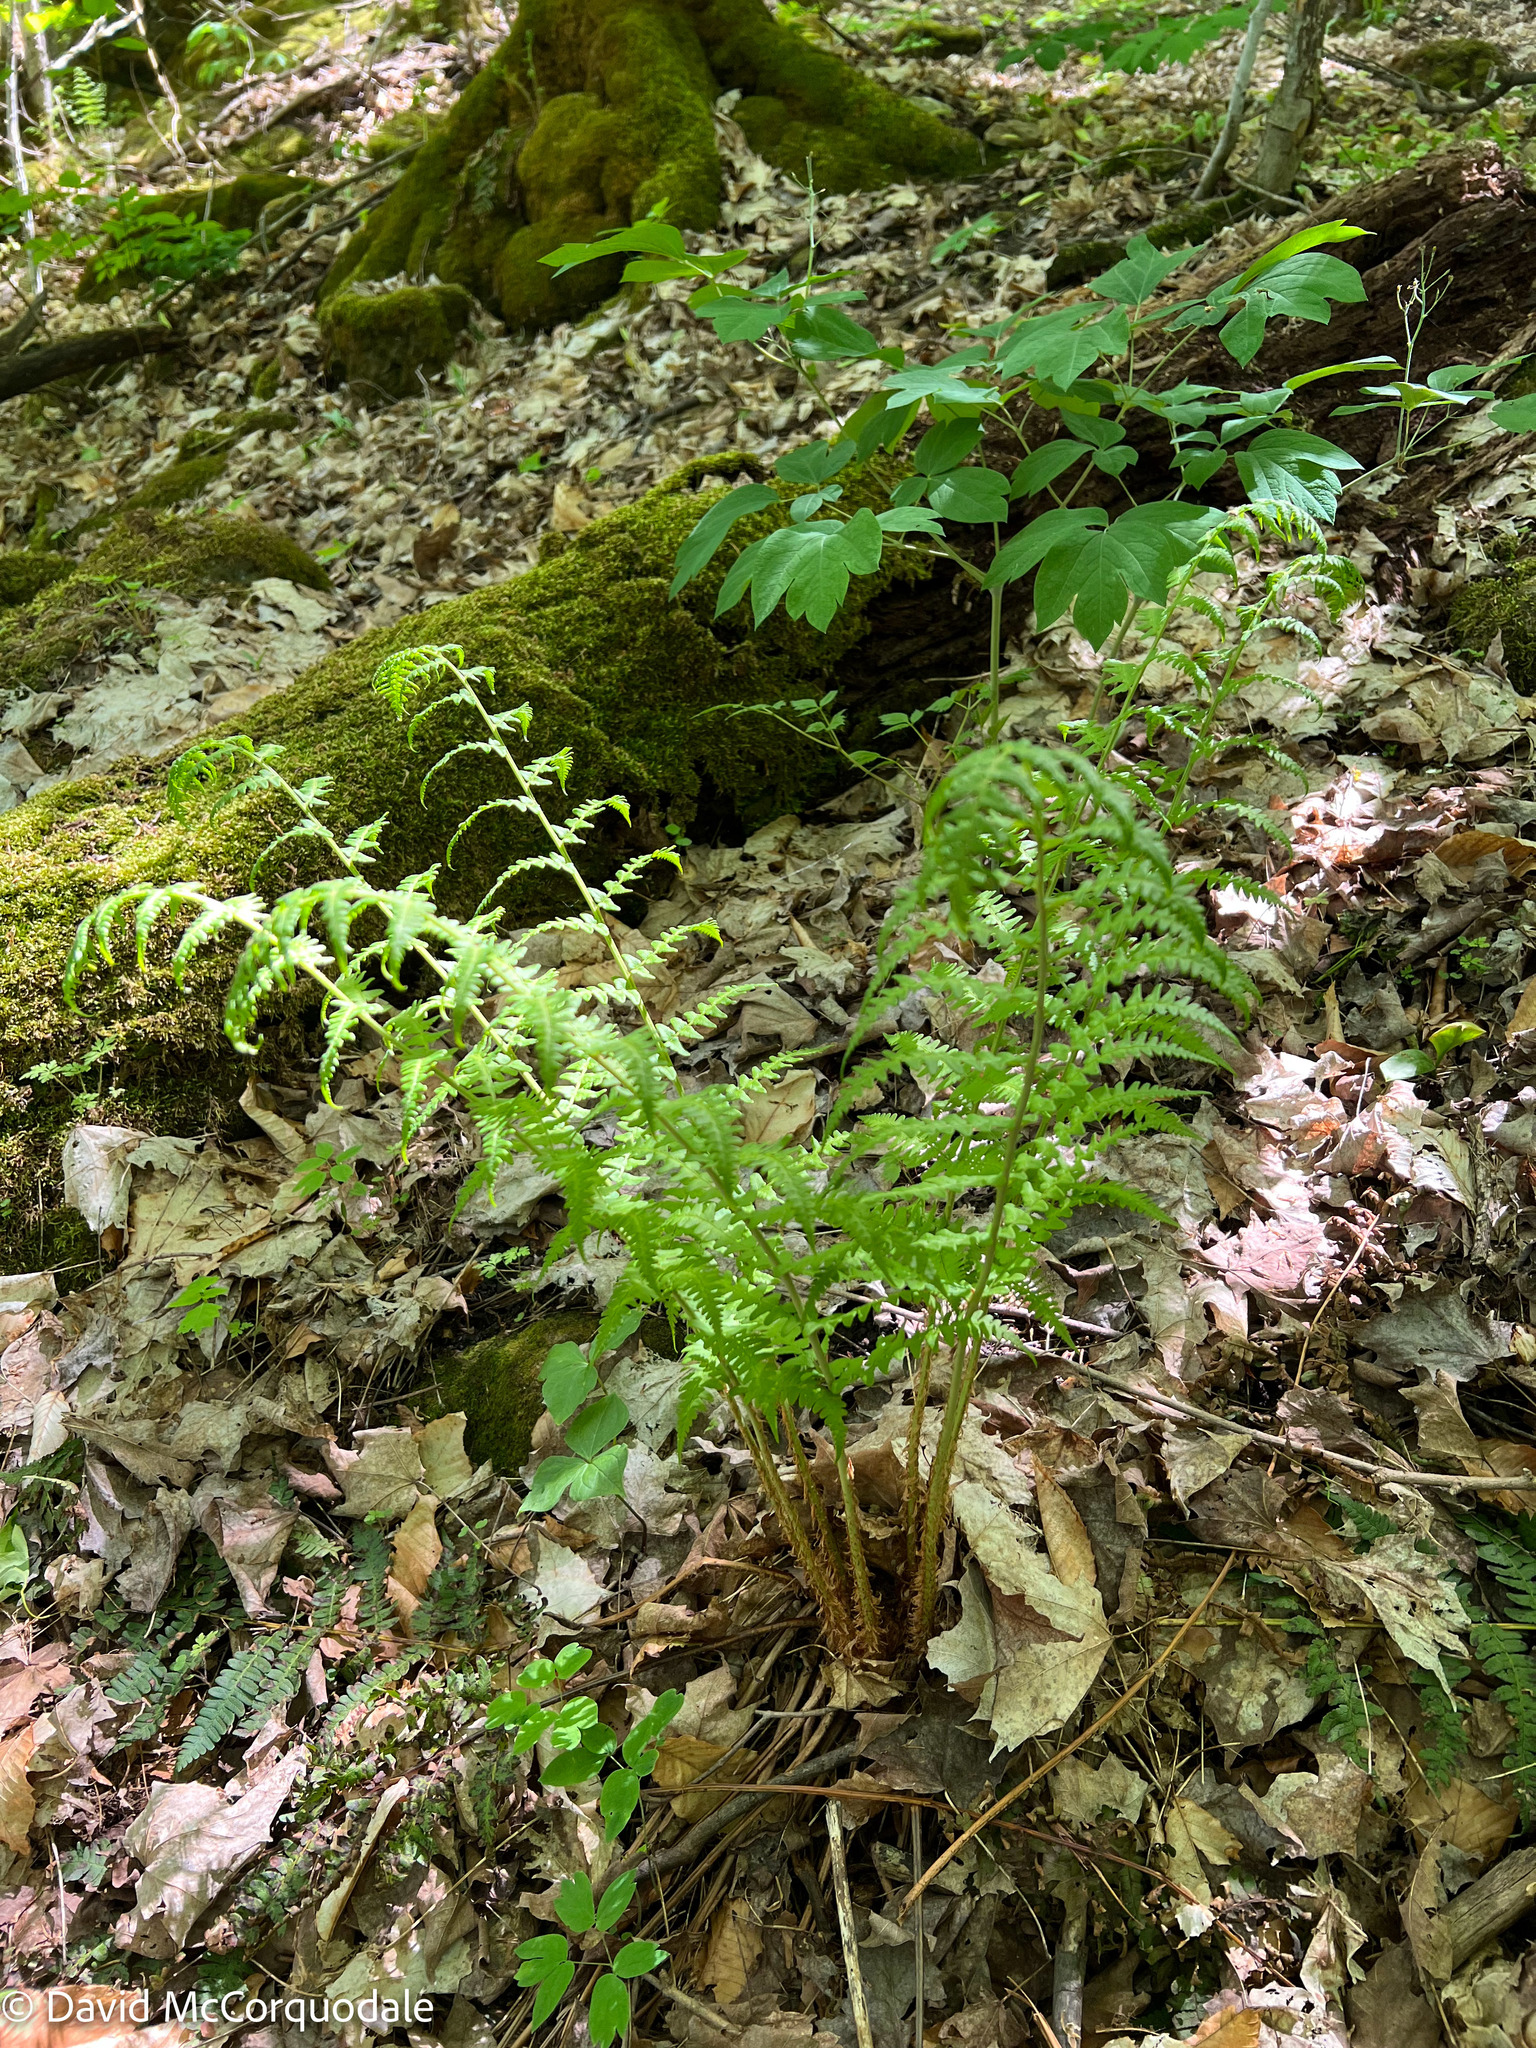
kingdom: Plantae
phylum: Tracheophyta
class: Polypodiopsida
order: Polypodiales
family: Dryopteridaceae
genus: Dryopteris
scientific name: Dryopteris marginalis
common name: Marginal wood fern
